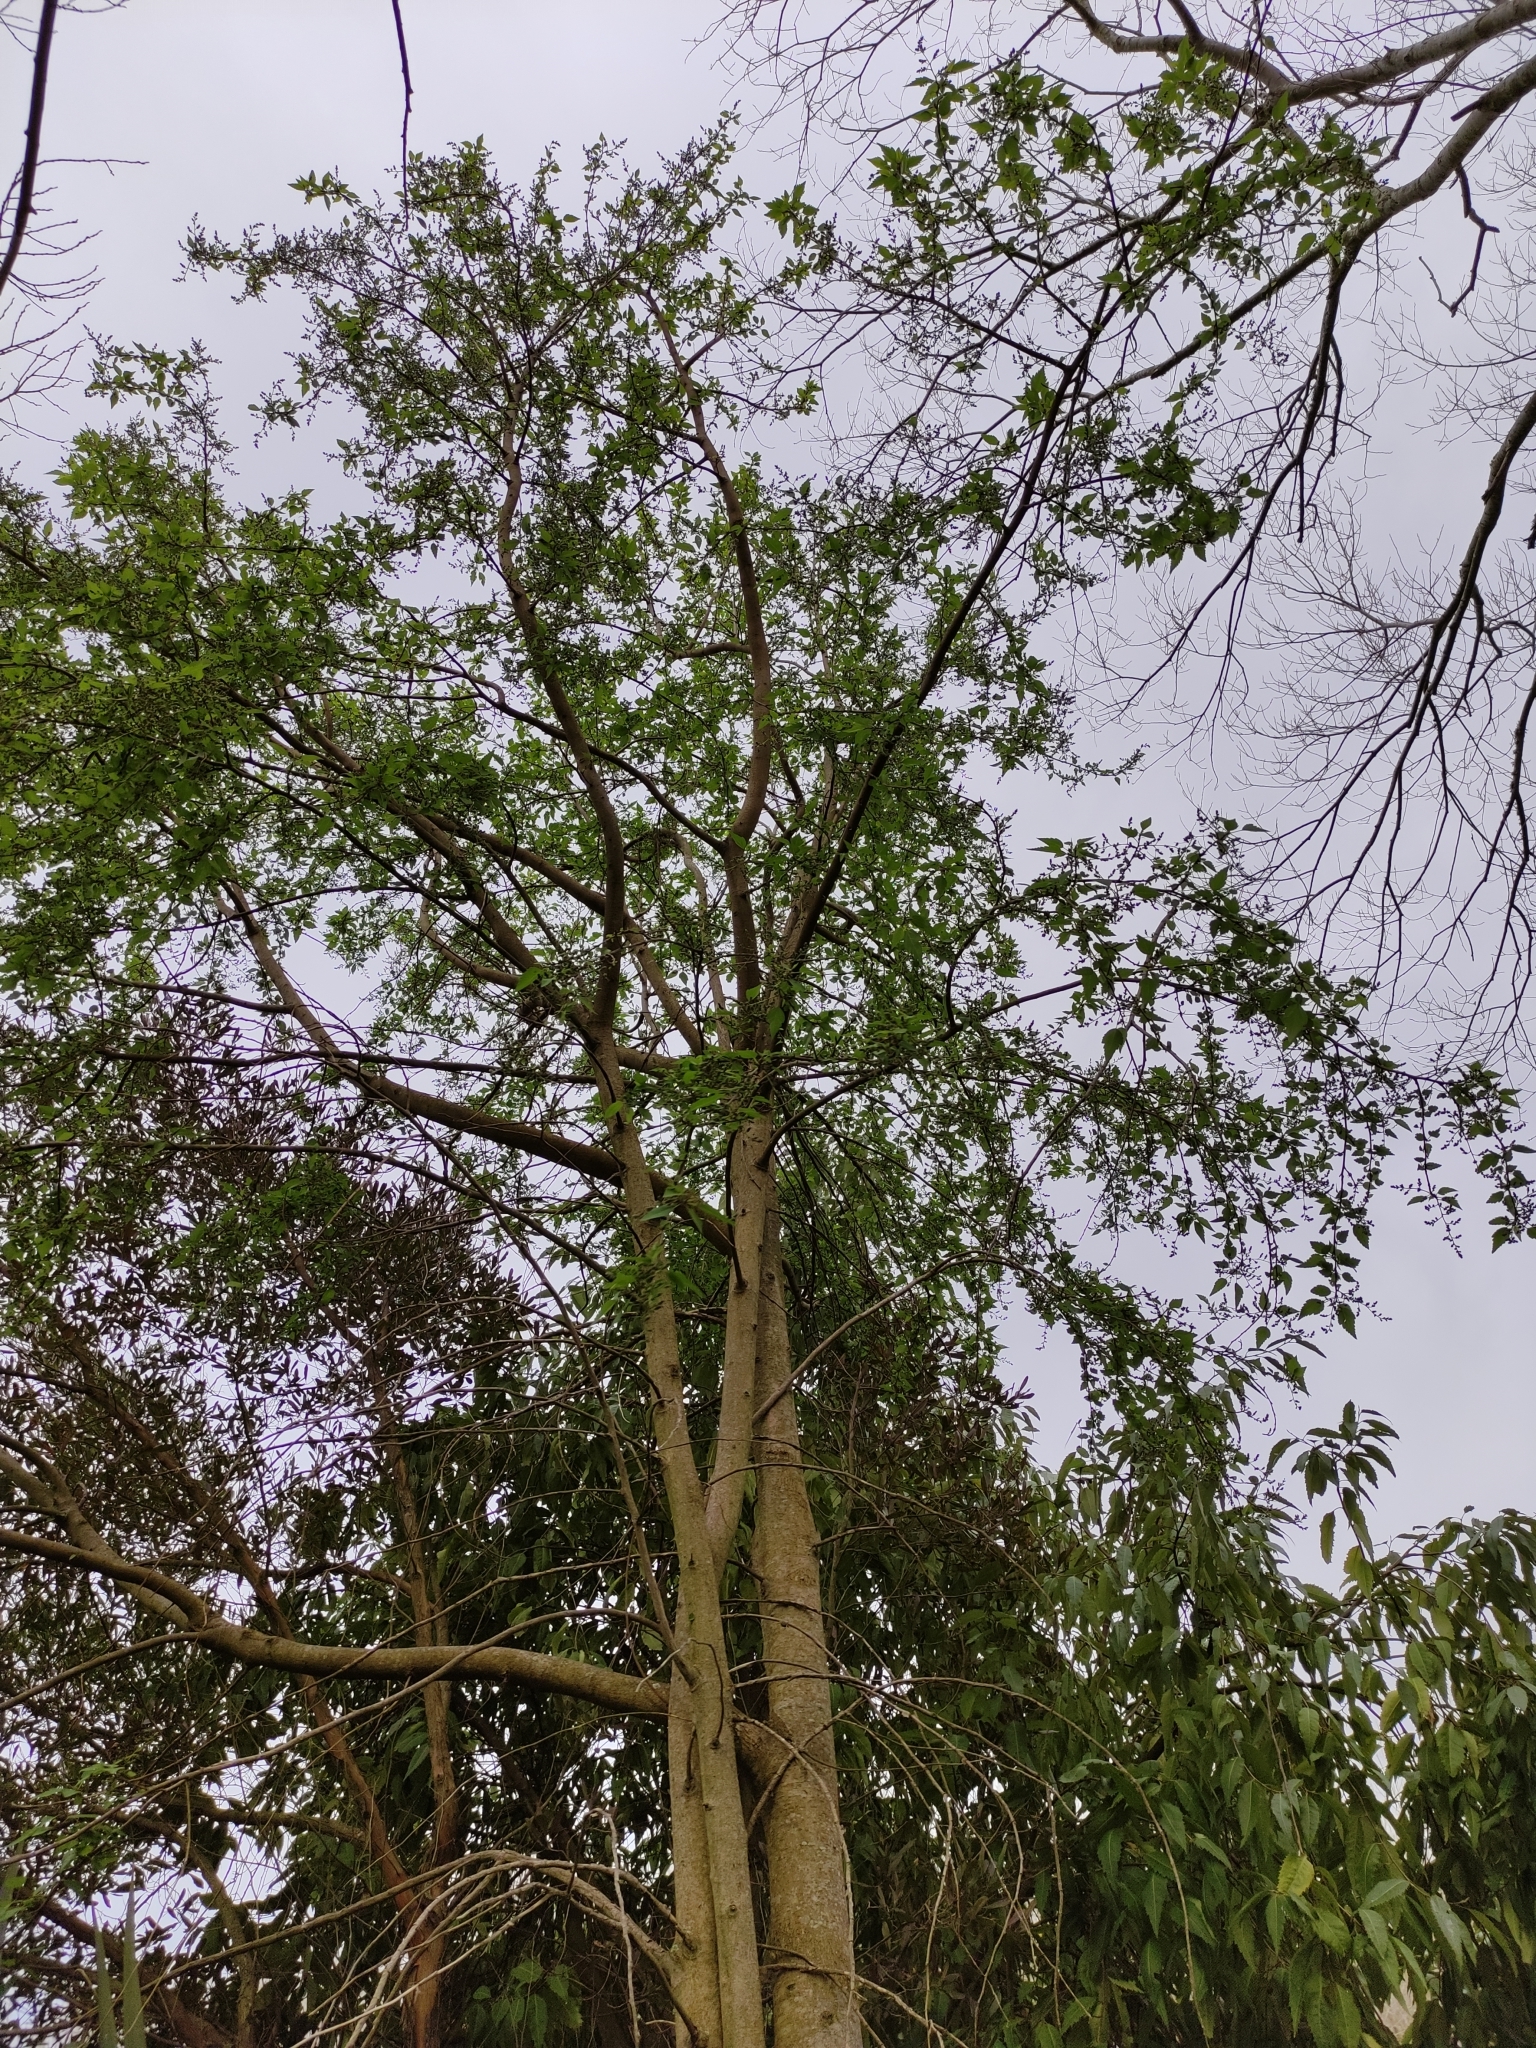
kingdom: Plantae
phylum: Tracheophyta
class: Magnoliopsida
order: Malvales
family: Malvaceae
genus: Plagianthus
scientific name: Plagianthus regius
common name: Manatu
